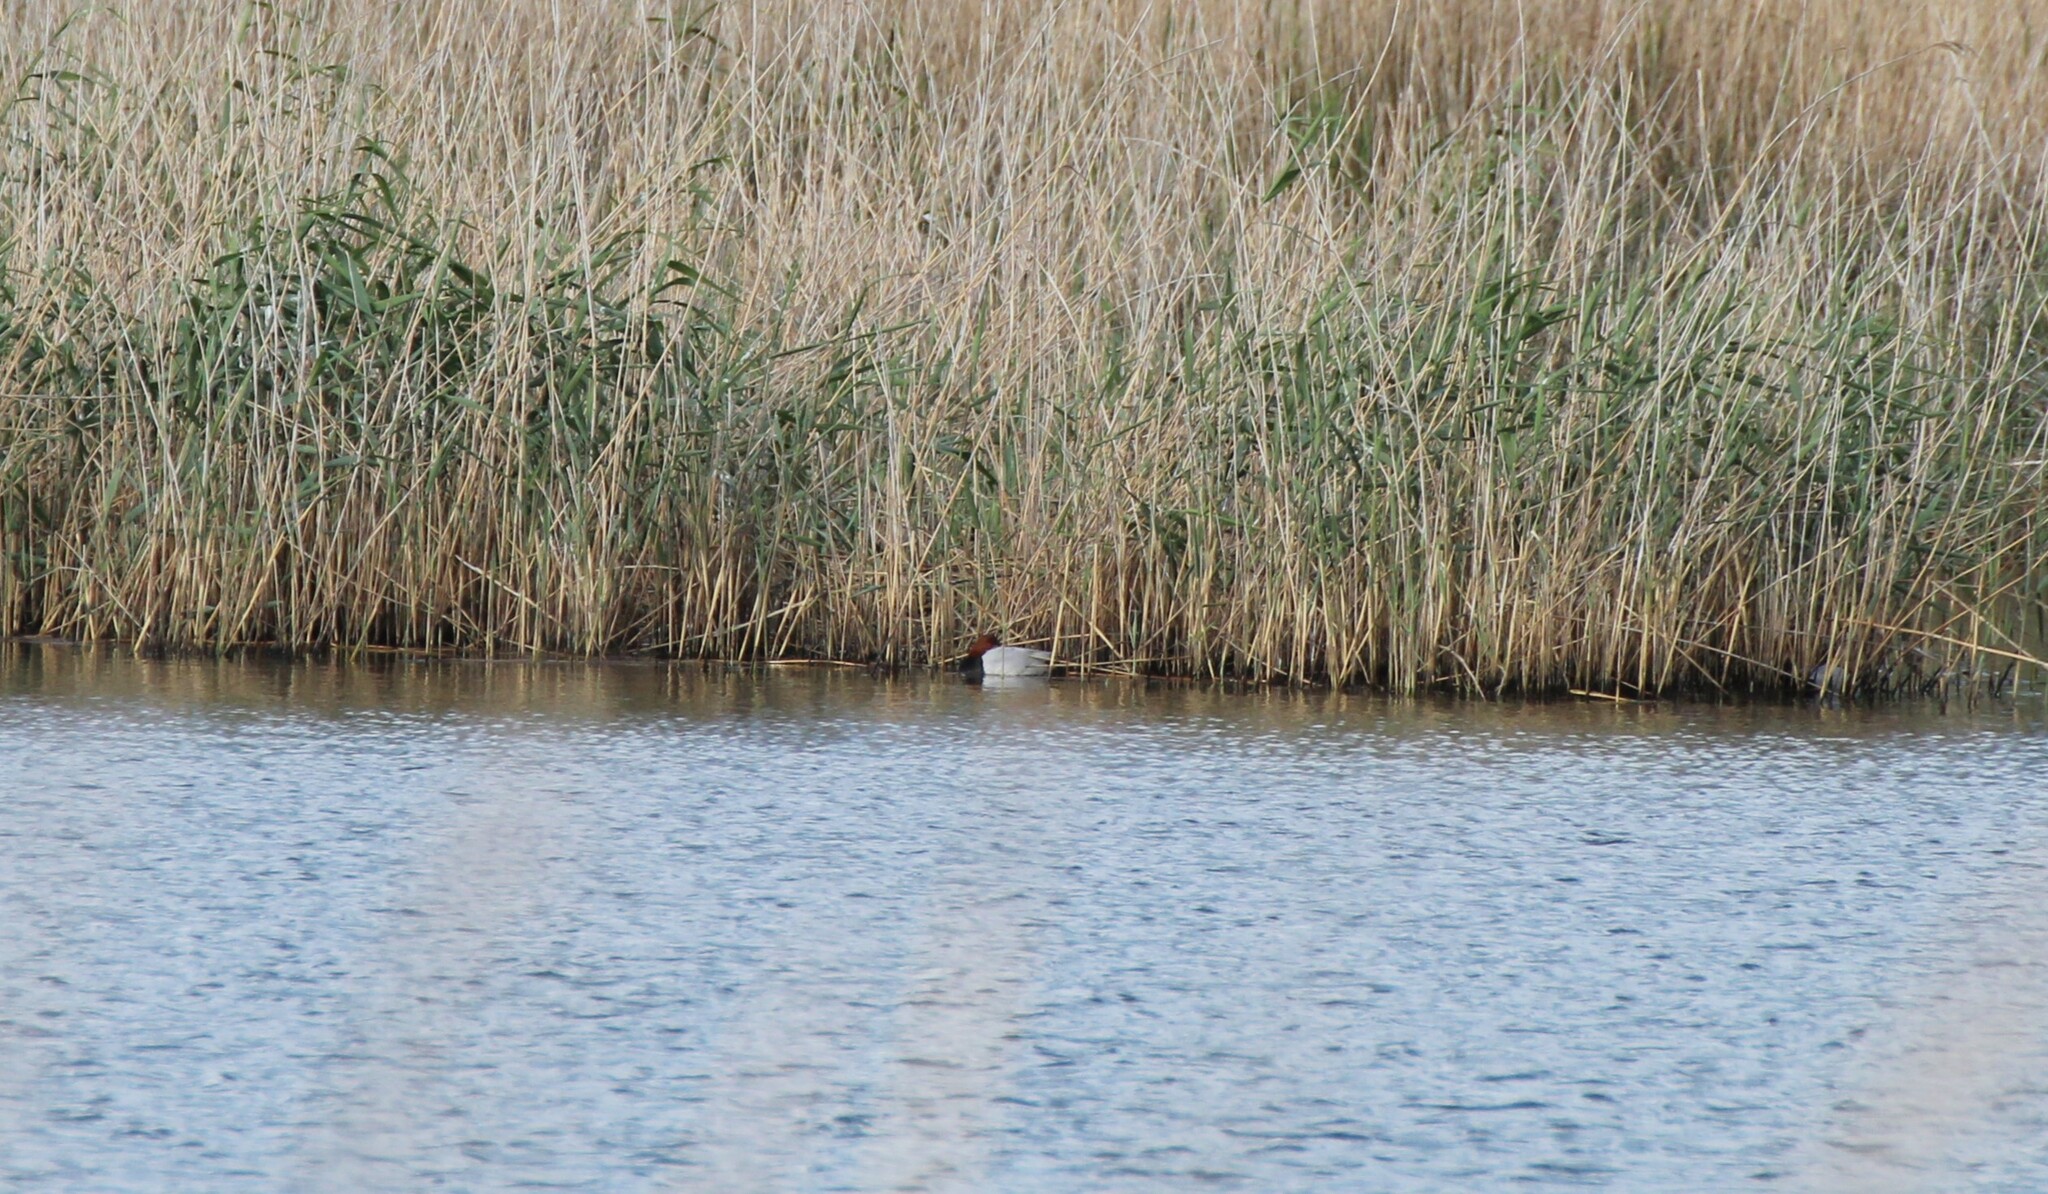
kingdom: Animalia
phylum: Chordata
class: Aves
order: Anseriformes
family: Anatidae
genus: Aythya
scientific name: Aythya ferina
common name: Common pochard
